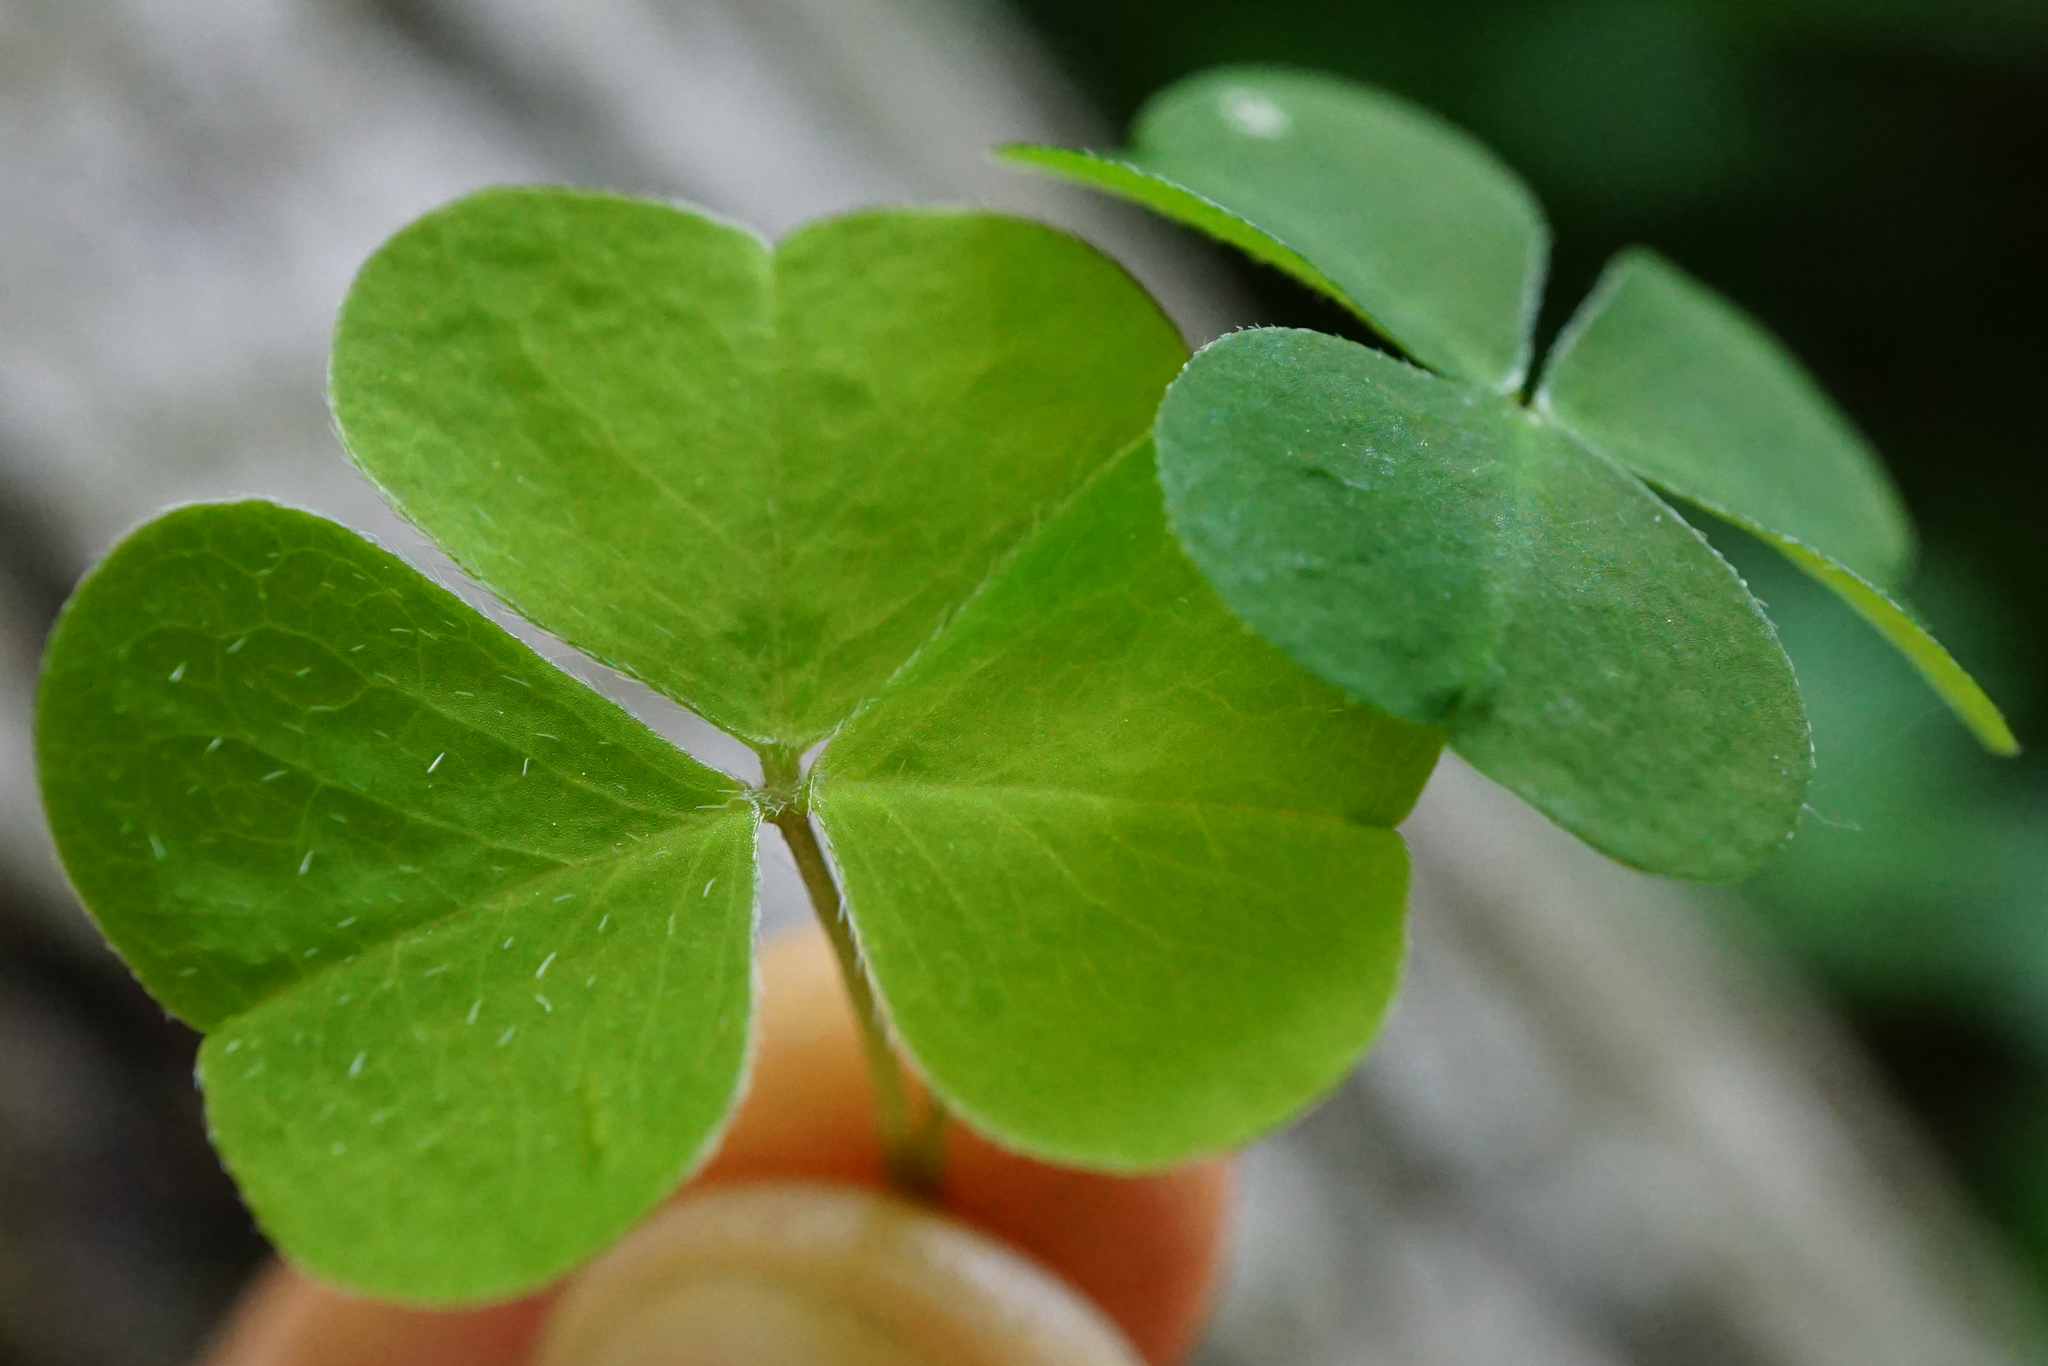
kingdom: Plantae
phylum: Tracheophyta
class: Magnoliopsida
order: Oxalidales
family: Oxalidaceae
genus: Oxalis
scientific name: Oxalis acetosella
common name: Wood-sorrel
